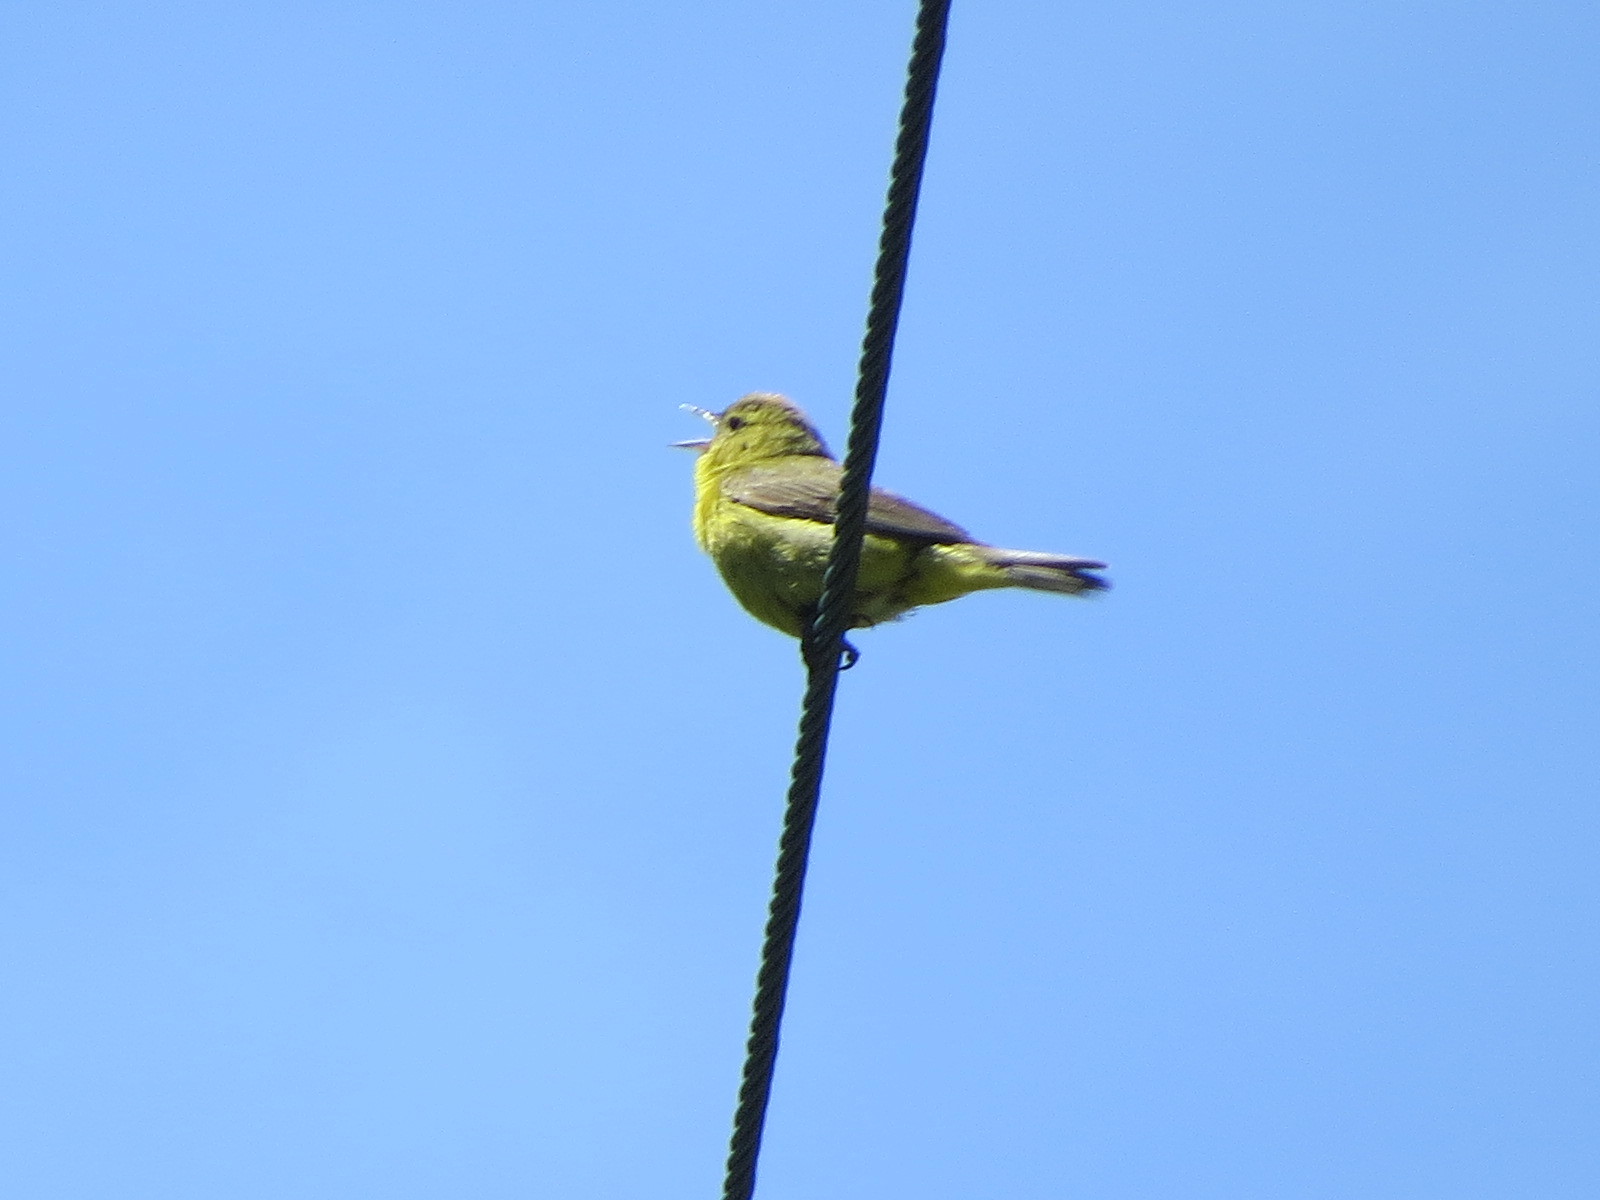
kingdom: Animalia
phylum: Chordata
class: Aves
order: Passeriformes
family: Parulidae
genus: Leiothlypis
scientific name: Leiothlypis celata
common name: Orange-crowned warbler
